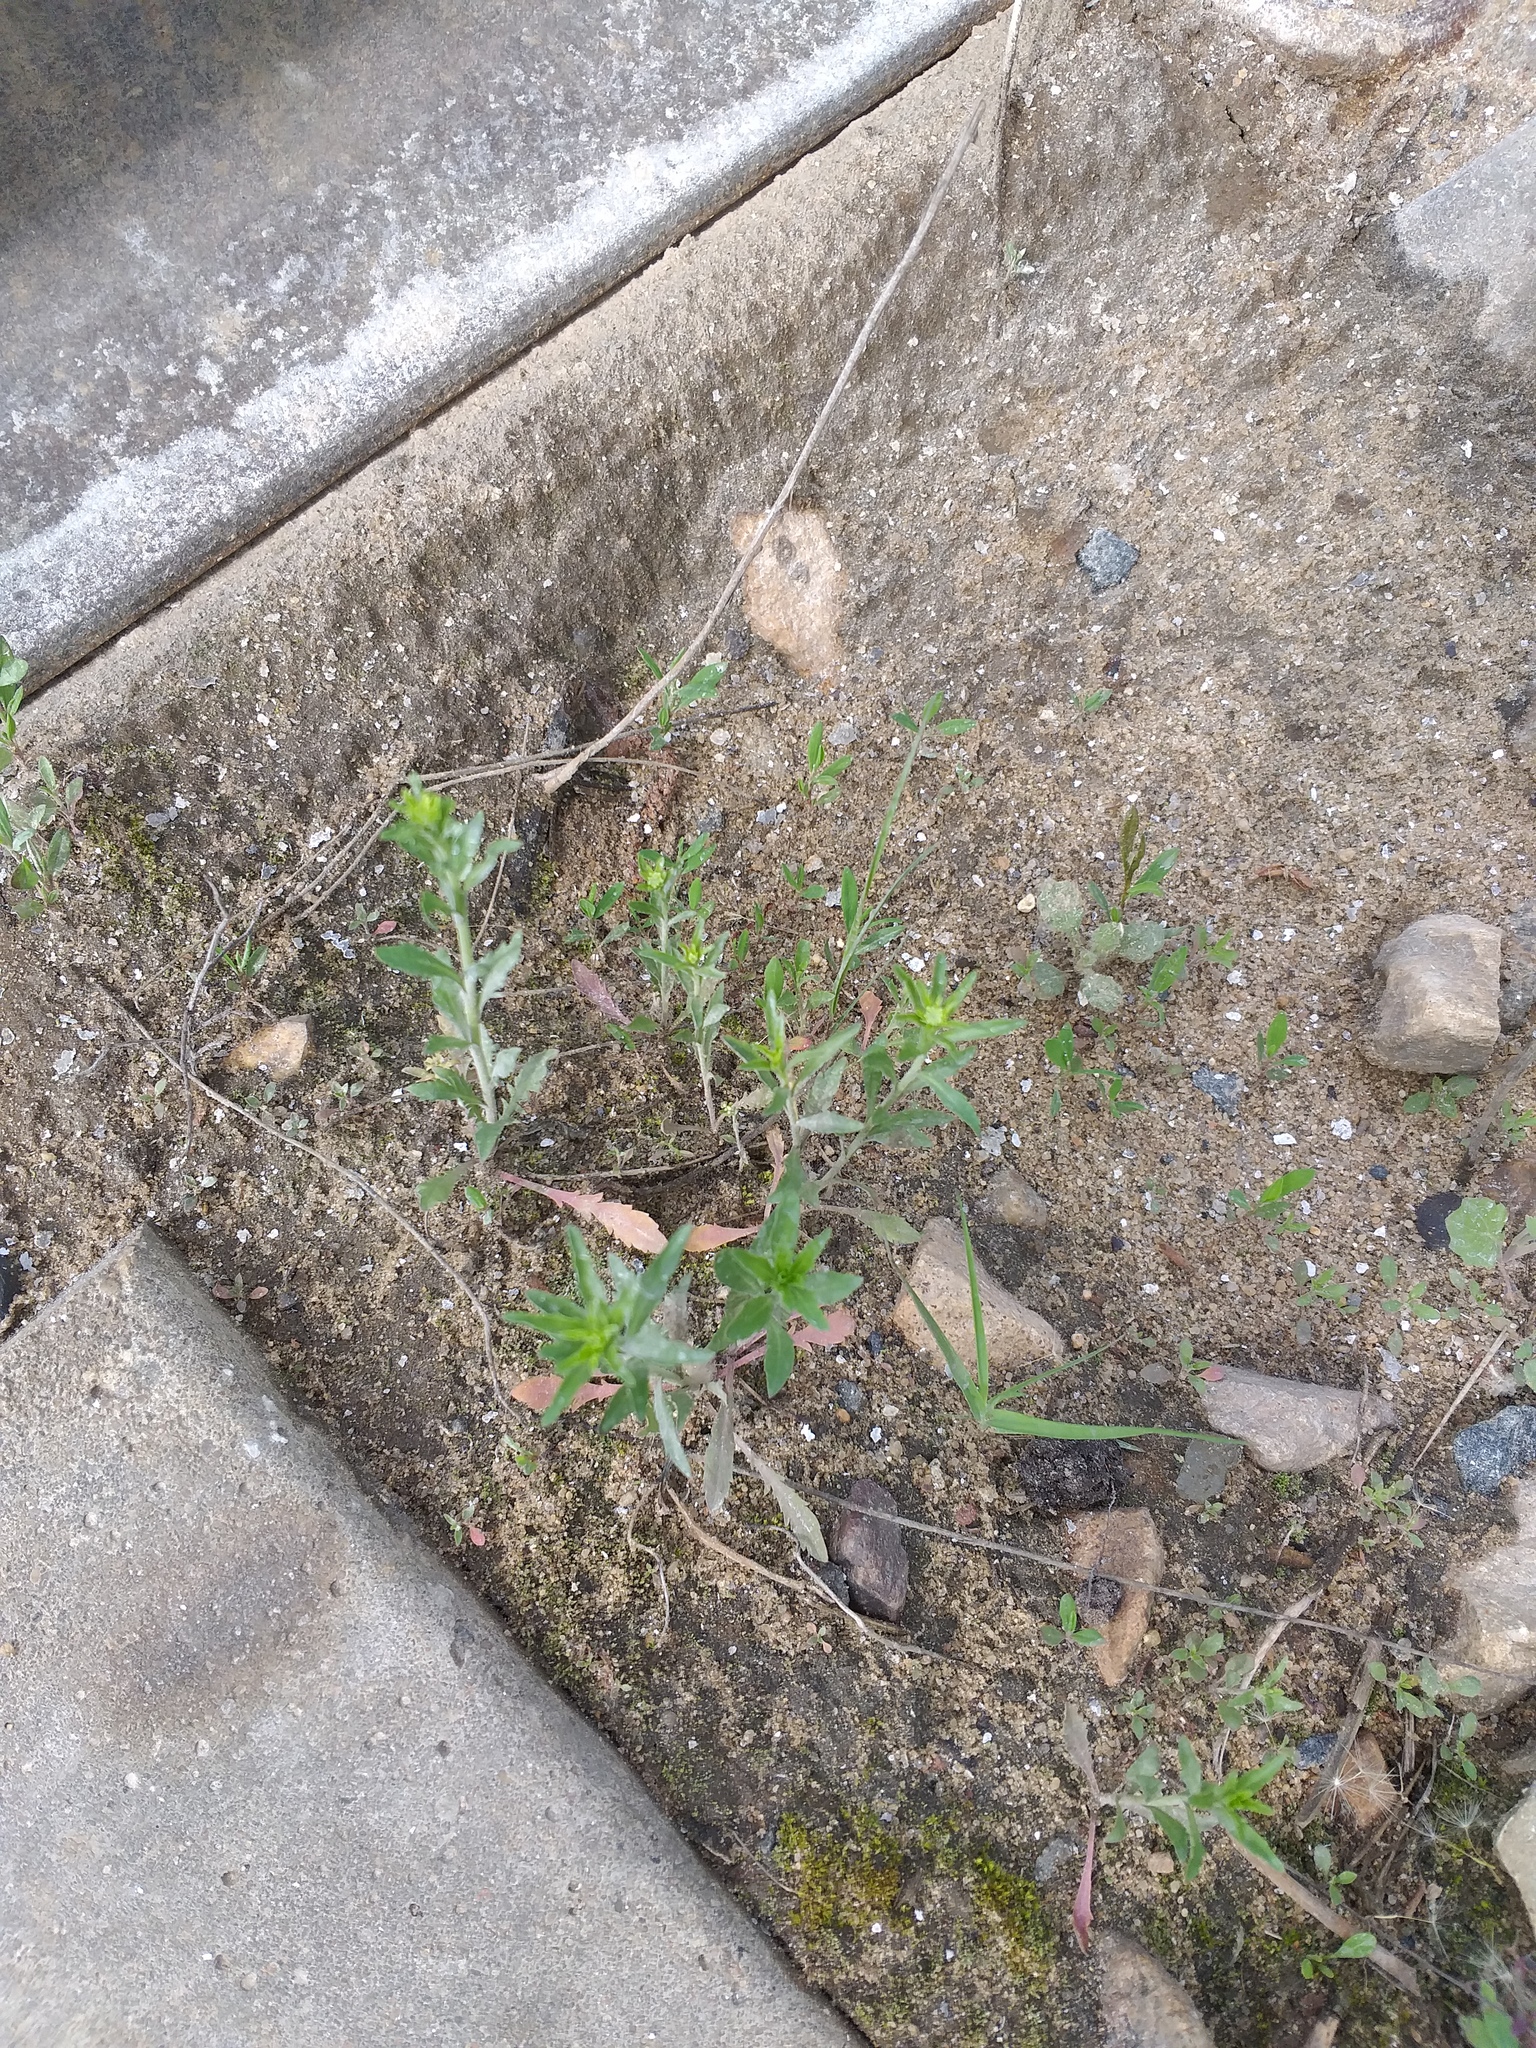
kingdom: Plantae
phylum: Tracheophyta
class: Magnoliopsida
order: Brassicales
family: Brassicaceae
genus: Lepidium
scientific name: Lepidium densiflorum
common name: Miner's pepperwort
